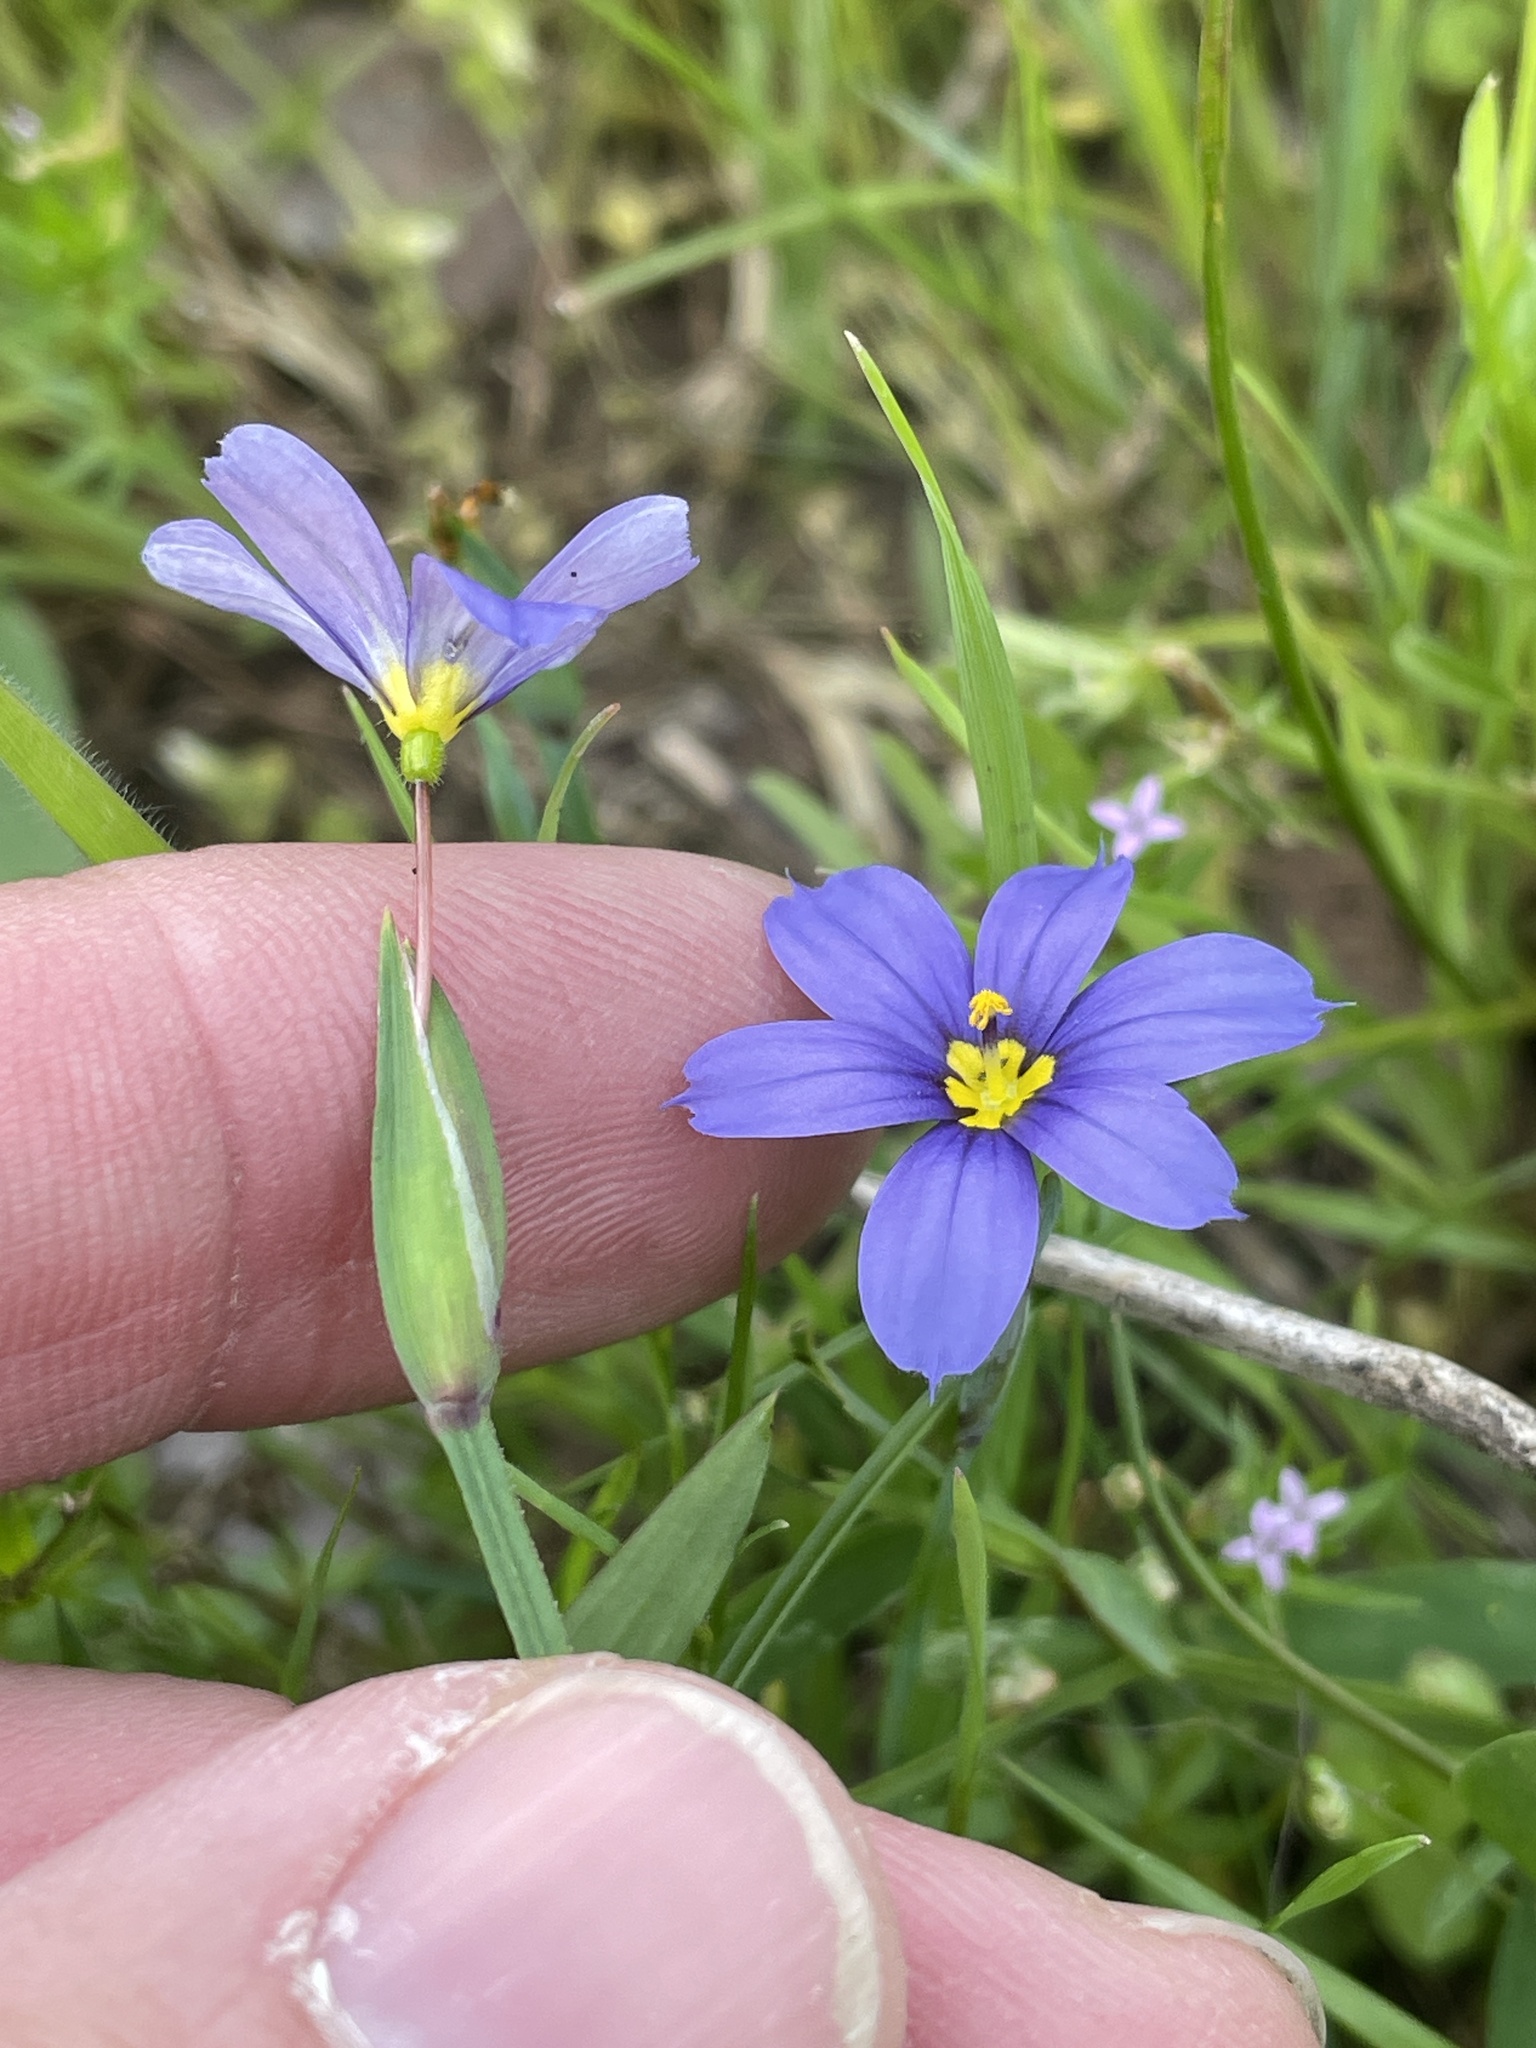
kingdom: Plantae
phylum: Tracheophyta
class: Liliopsida
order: Asparagales
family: Iridaceae
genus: Sisyrinchium
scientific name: Sisyrinchium pruinosum
